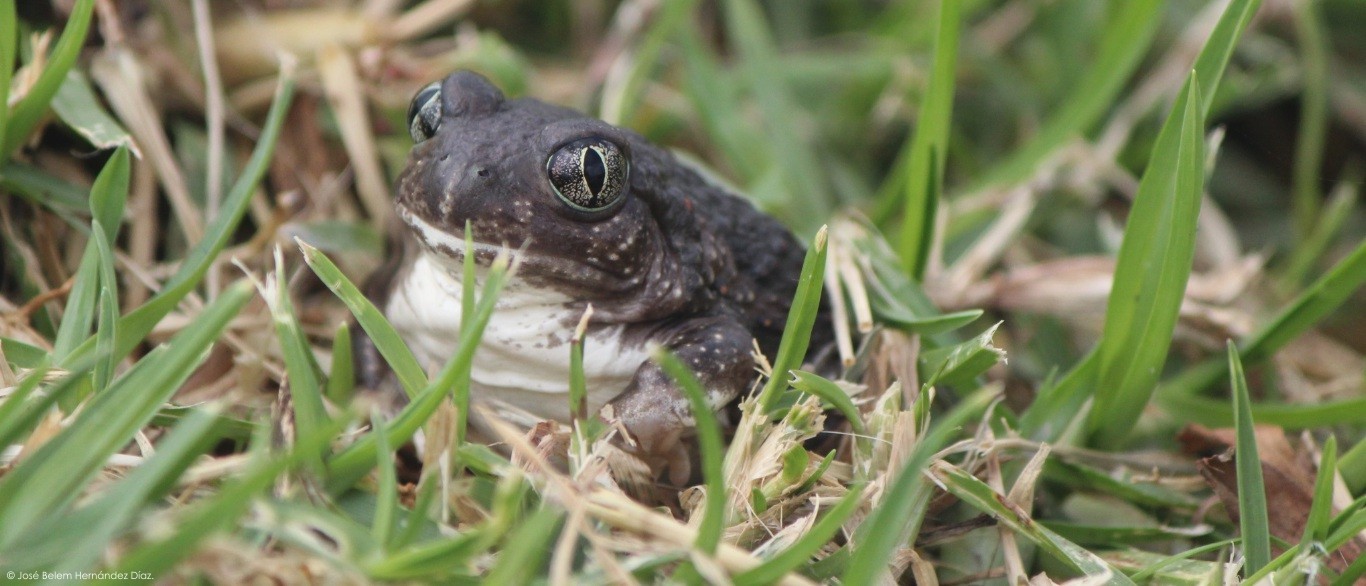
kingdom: Animalia
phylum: Chordata
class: Amphibia
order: Anura
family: Scaphiopodidae
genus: Spea
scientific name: Spea multiplicata
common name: Mexican spadefoot
